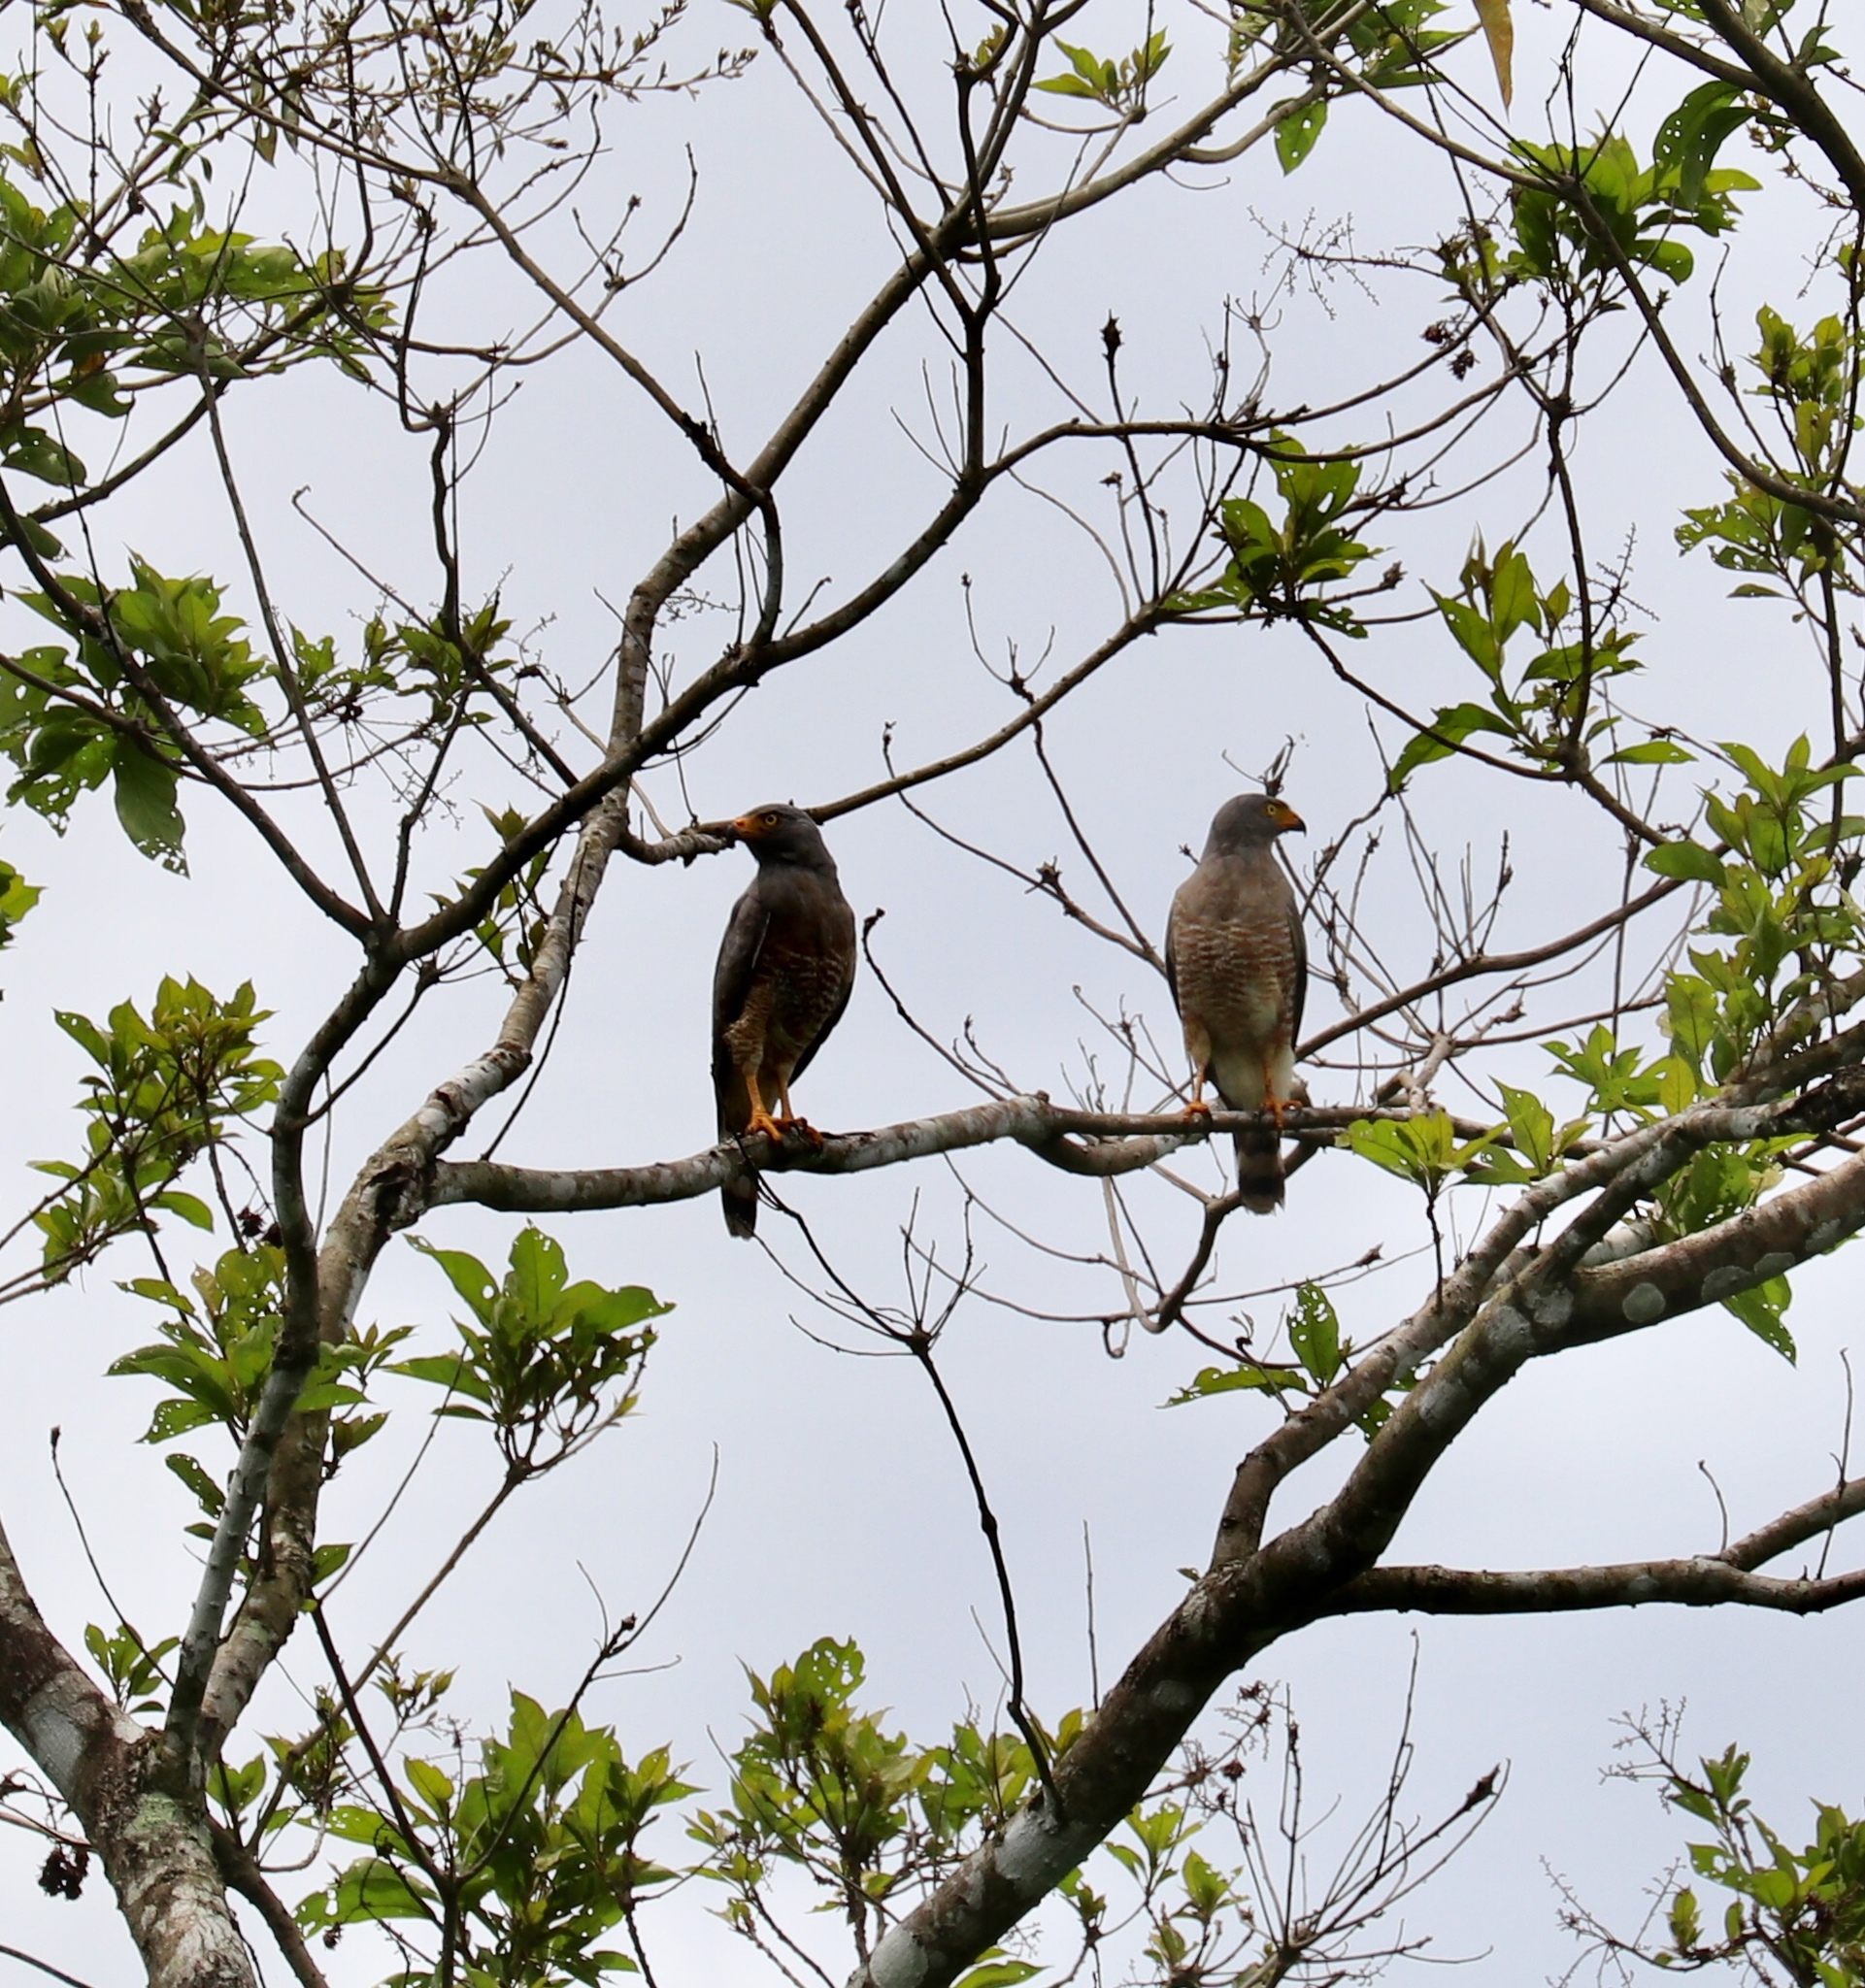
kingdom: Animalia
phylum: Chordata
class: Aves
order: Accipitriformes
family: Accipitridae
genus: Rupornis
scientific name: Rupornis magnirostris
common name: Roadside hawk
